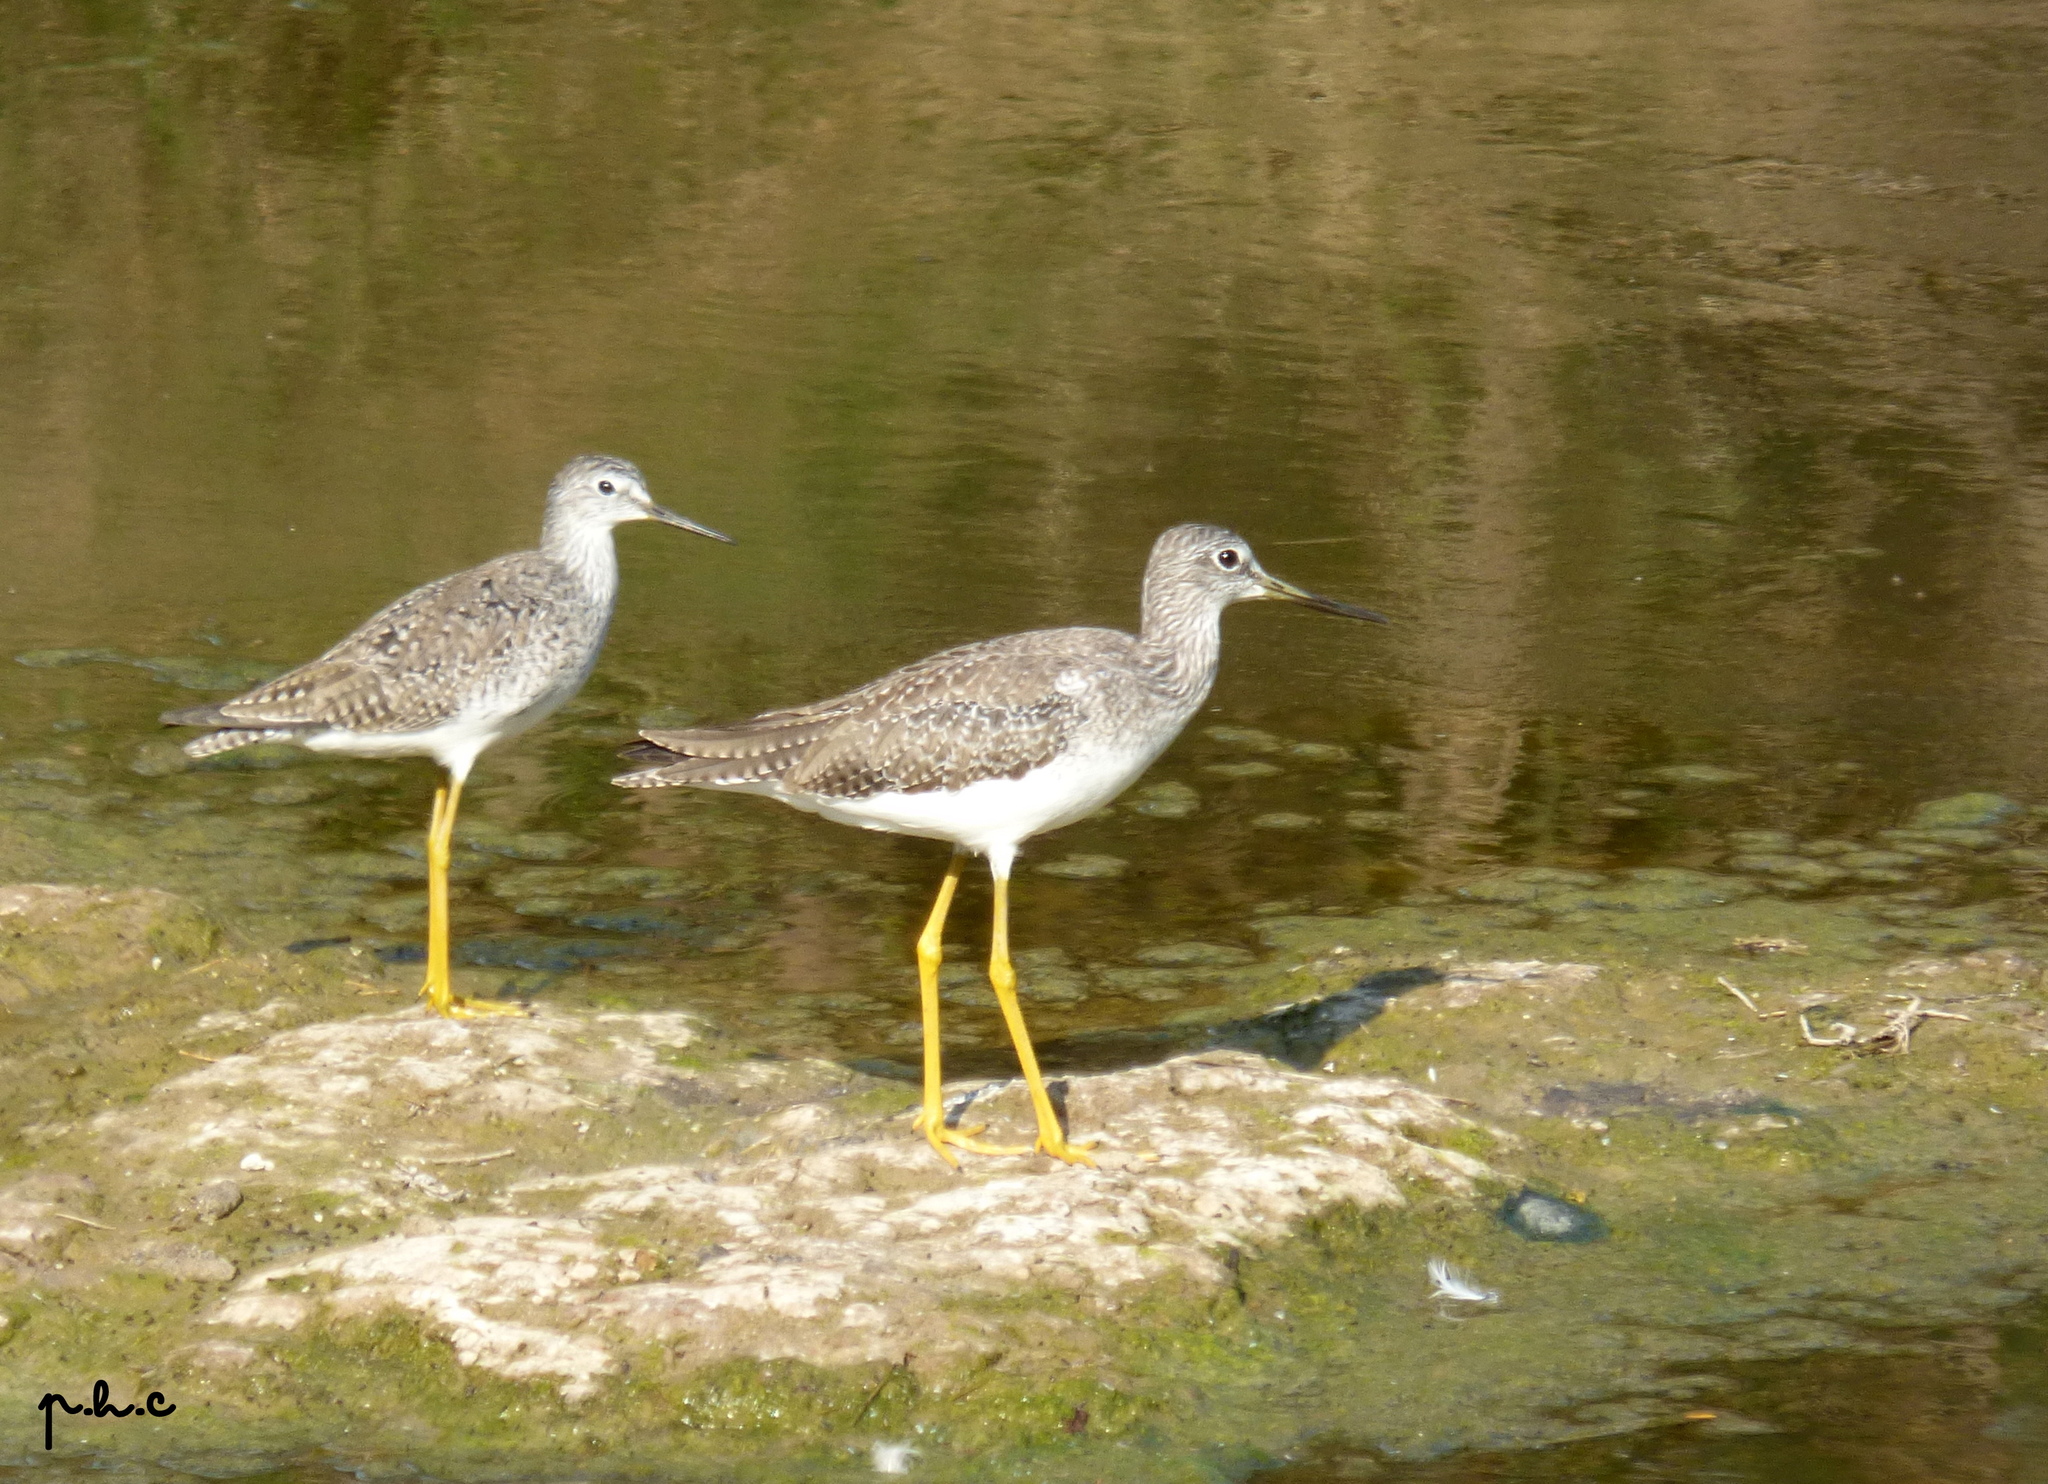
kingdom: Animalia
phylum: Chordata
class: Aves
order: Charadriiformes
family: Scolopacidae
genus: Tringa
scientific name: Tringa flavipes
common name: Lesser yellowlegs
